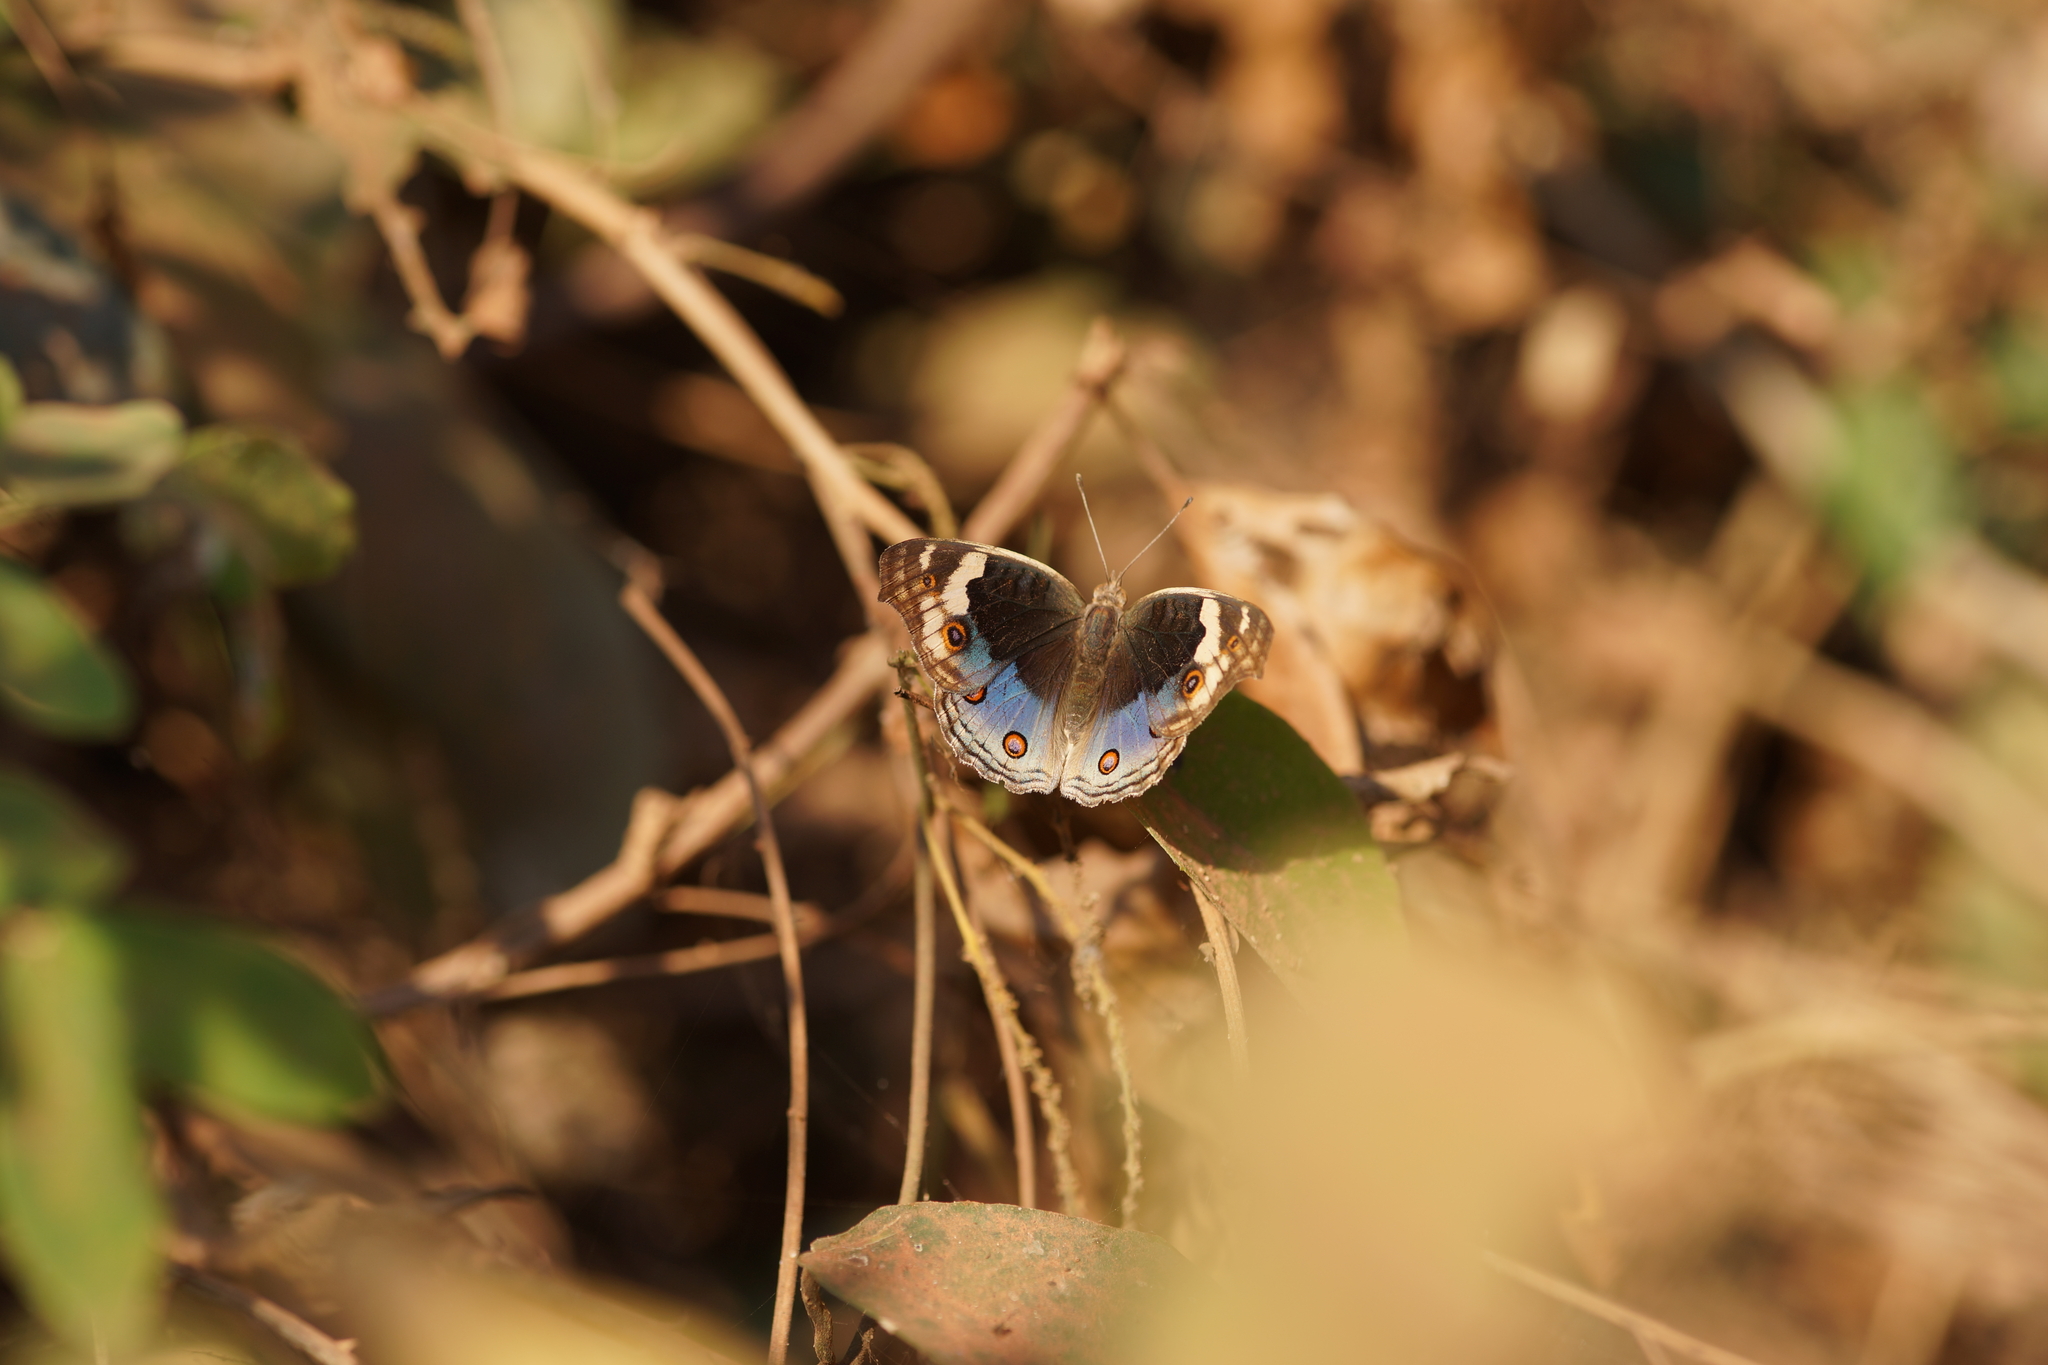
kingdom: Animalia
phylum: Arthropoda
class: Insecta
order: Lepidoptera
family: Nymphalidae
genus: Junonia
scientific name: Junonia orithya
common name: Blue pansy
